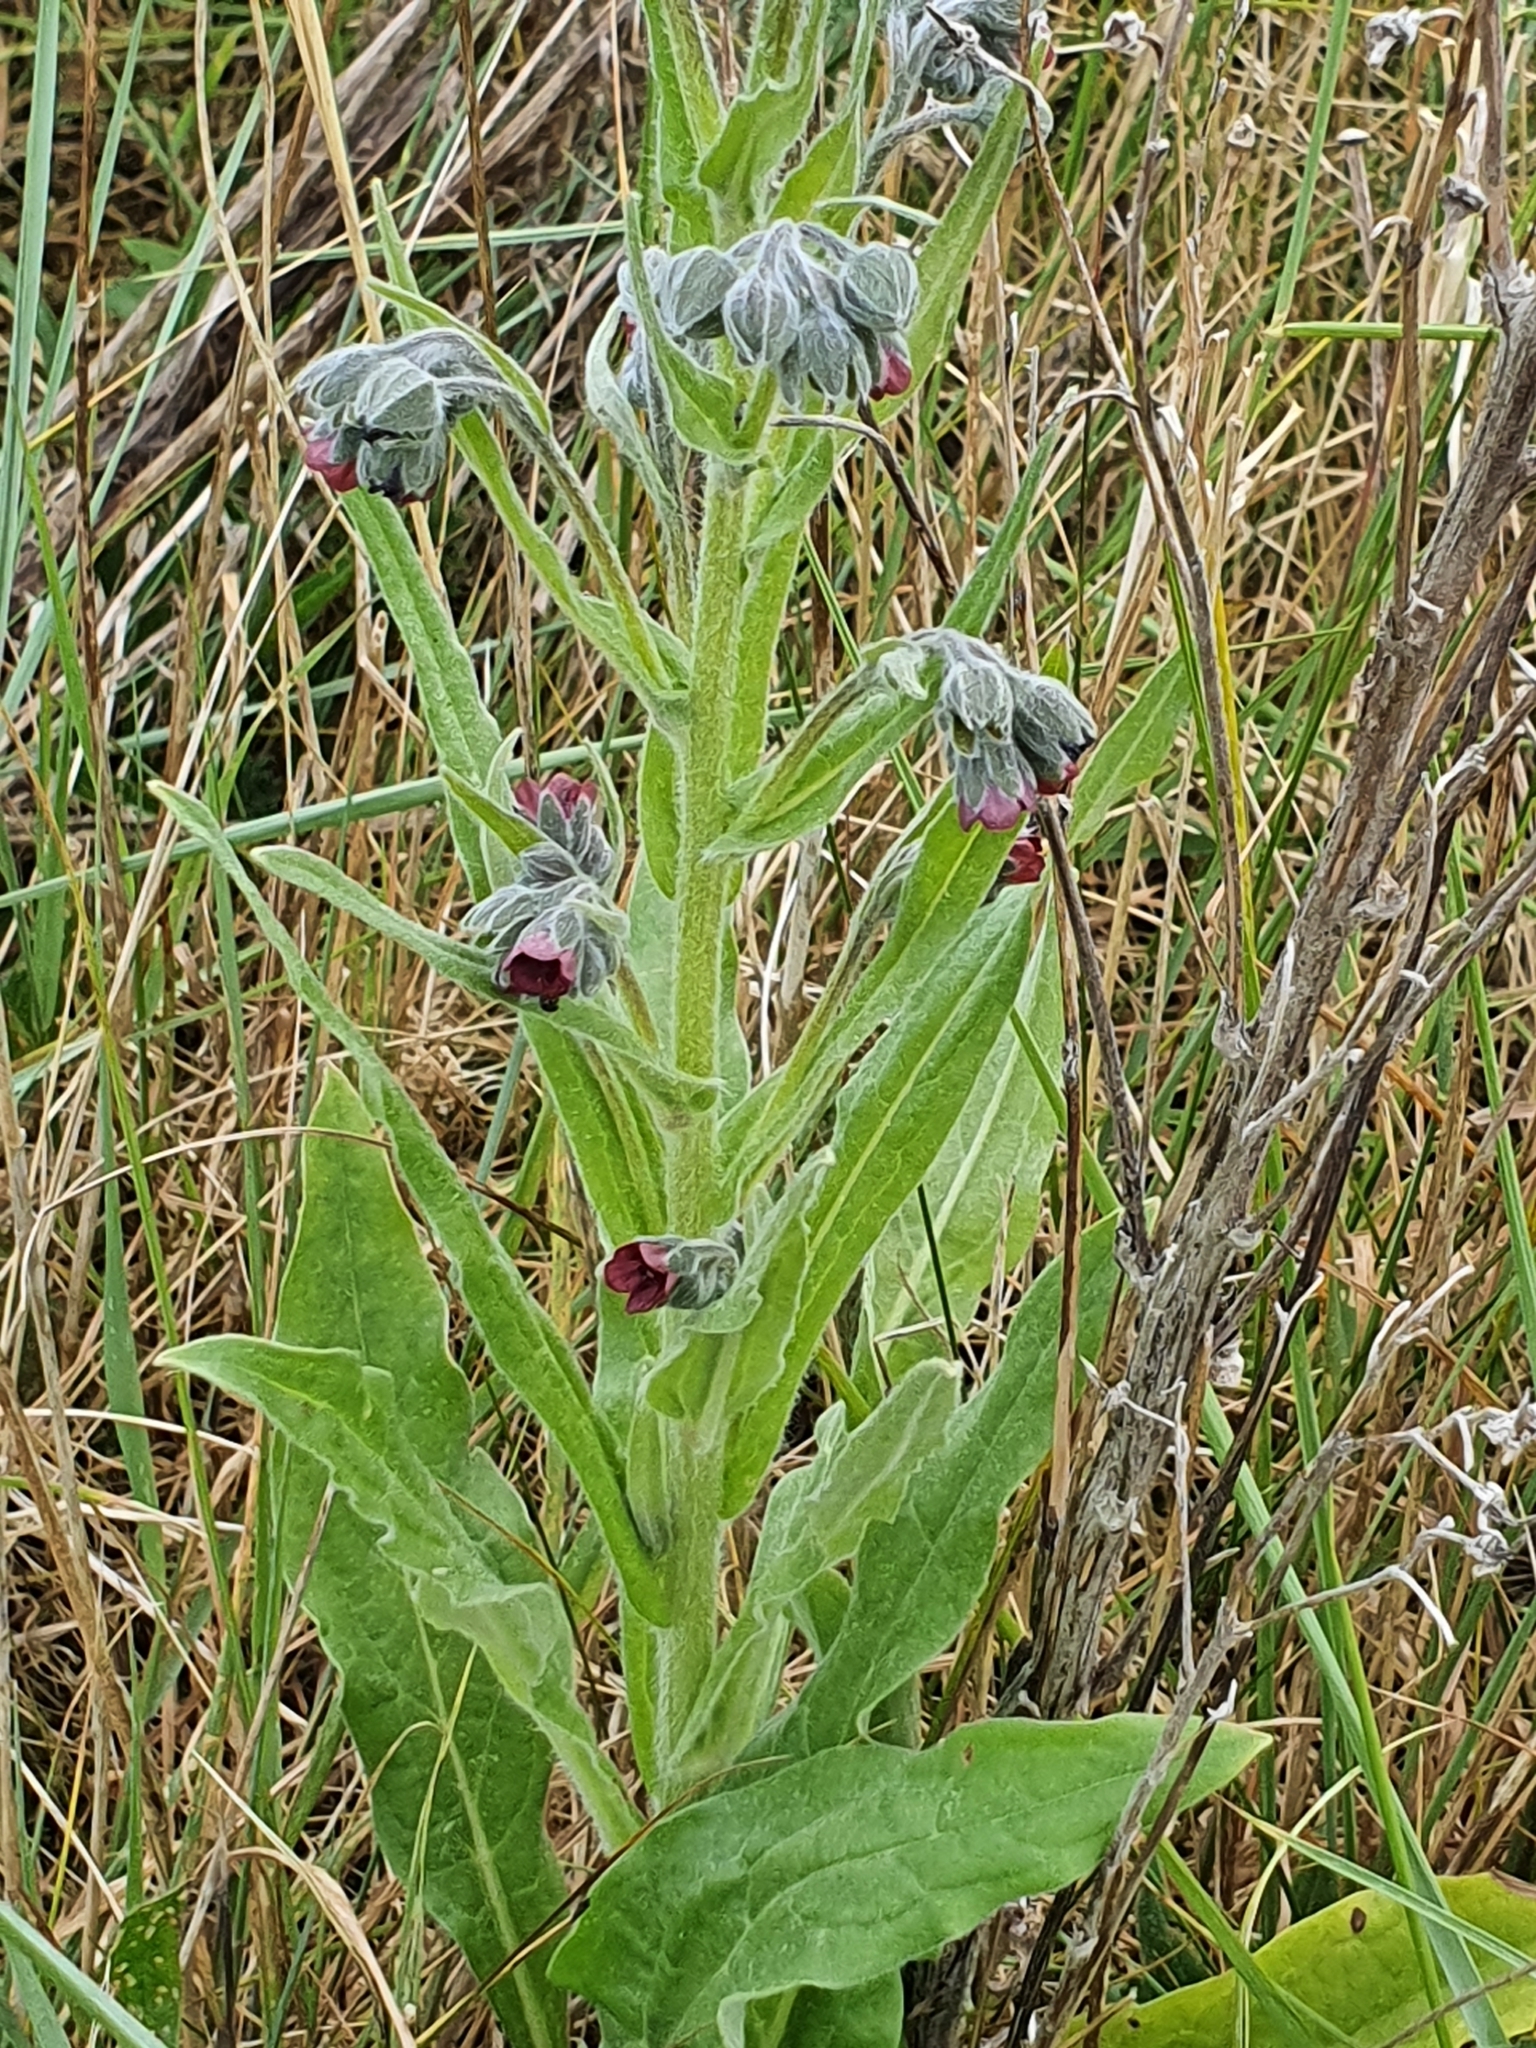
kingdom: Plantae
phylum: Tracheophyta
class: Magnoliopsida
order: Boraginales
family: Boraginaceae
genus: Cynoglossum
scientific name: Cynoglossum officinale
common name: Hound's-tongue
